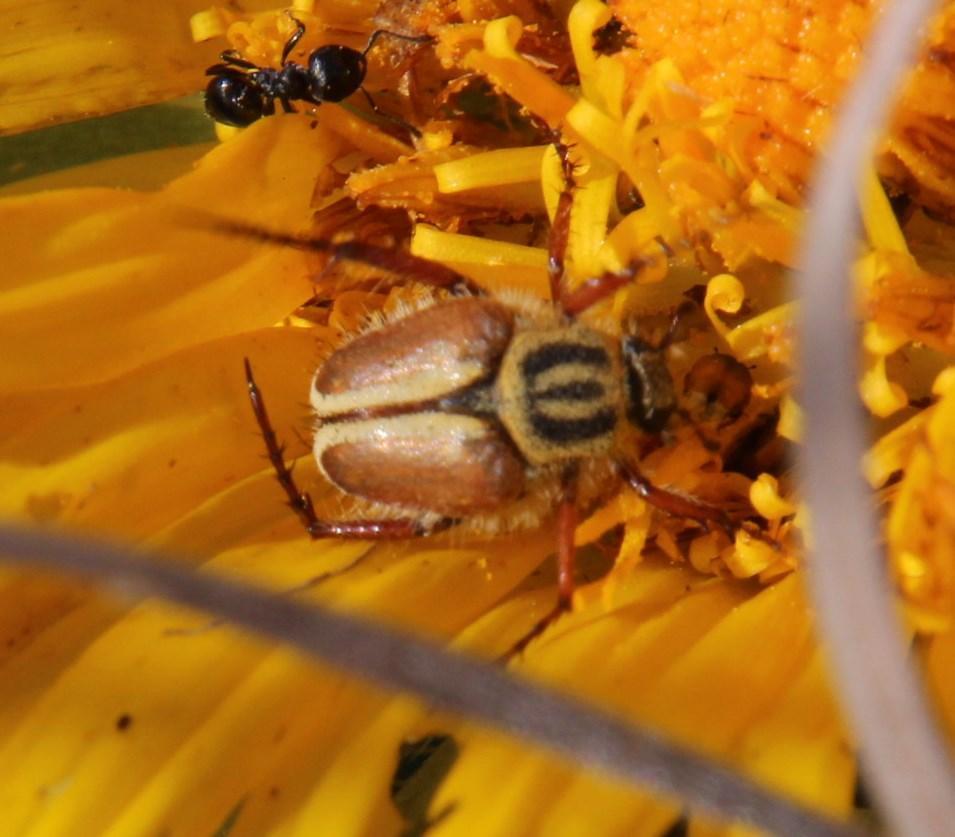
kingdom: Animalia
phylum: Arthropoda
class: Insecta
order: Hymenoptera
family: Formicidae
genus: Crematogaster
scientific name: Crematogaster peringueyi
